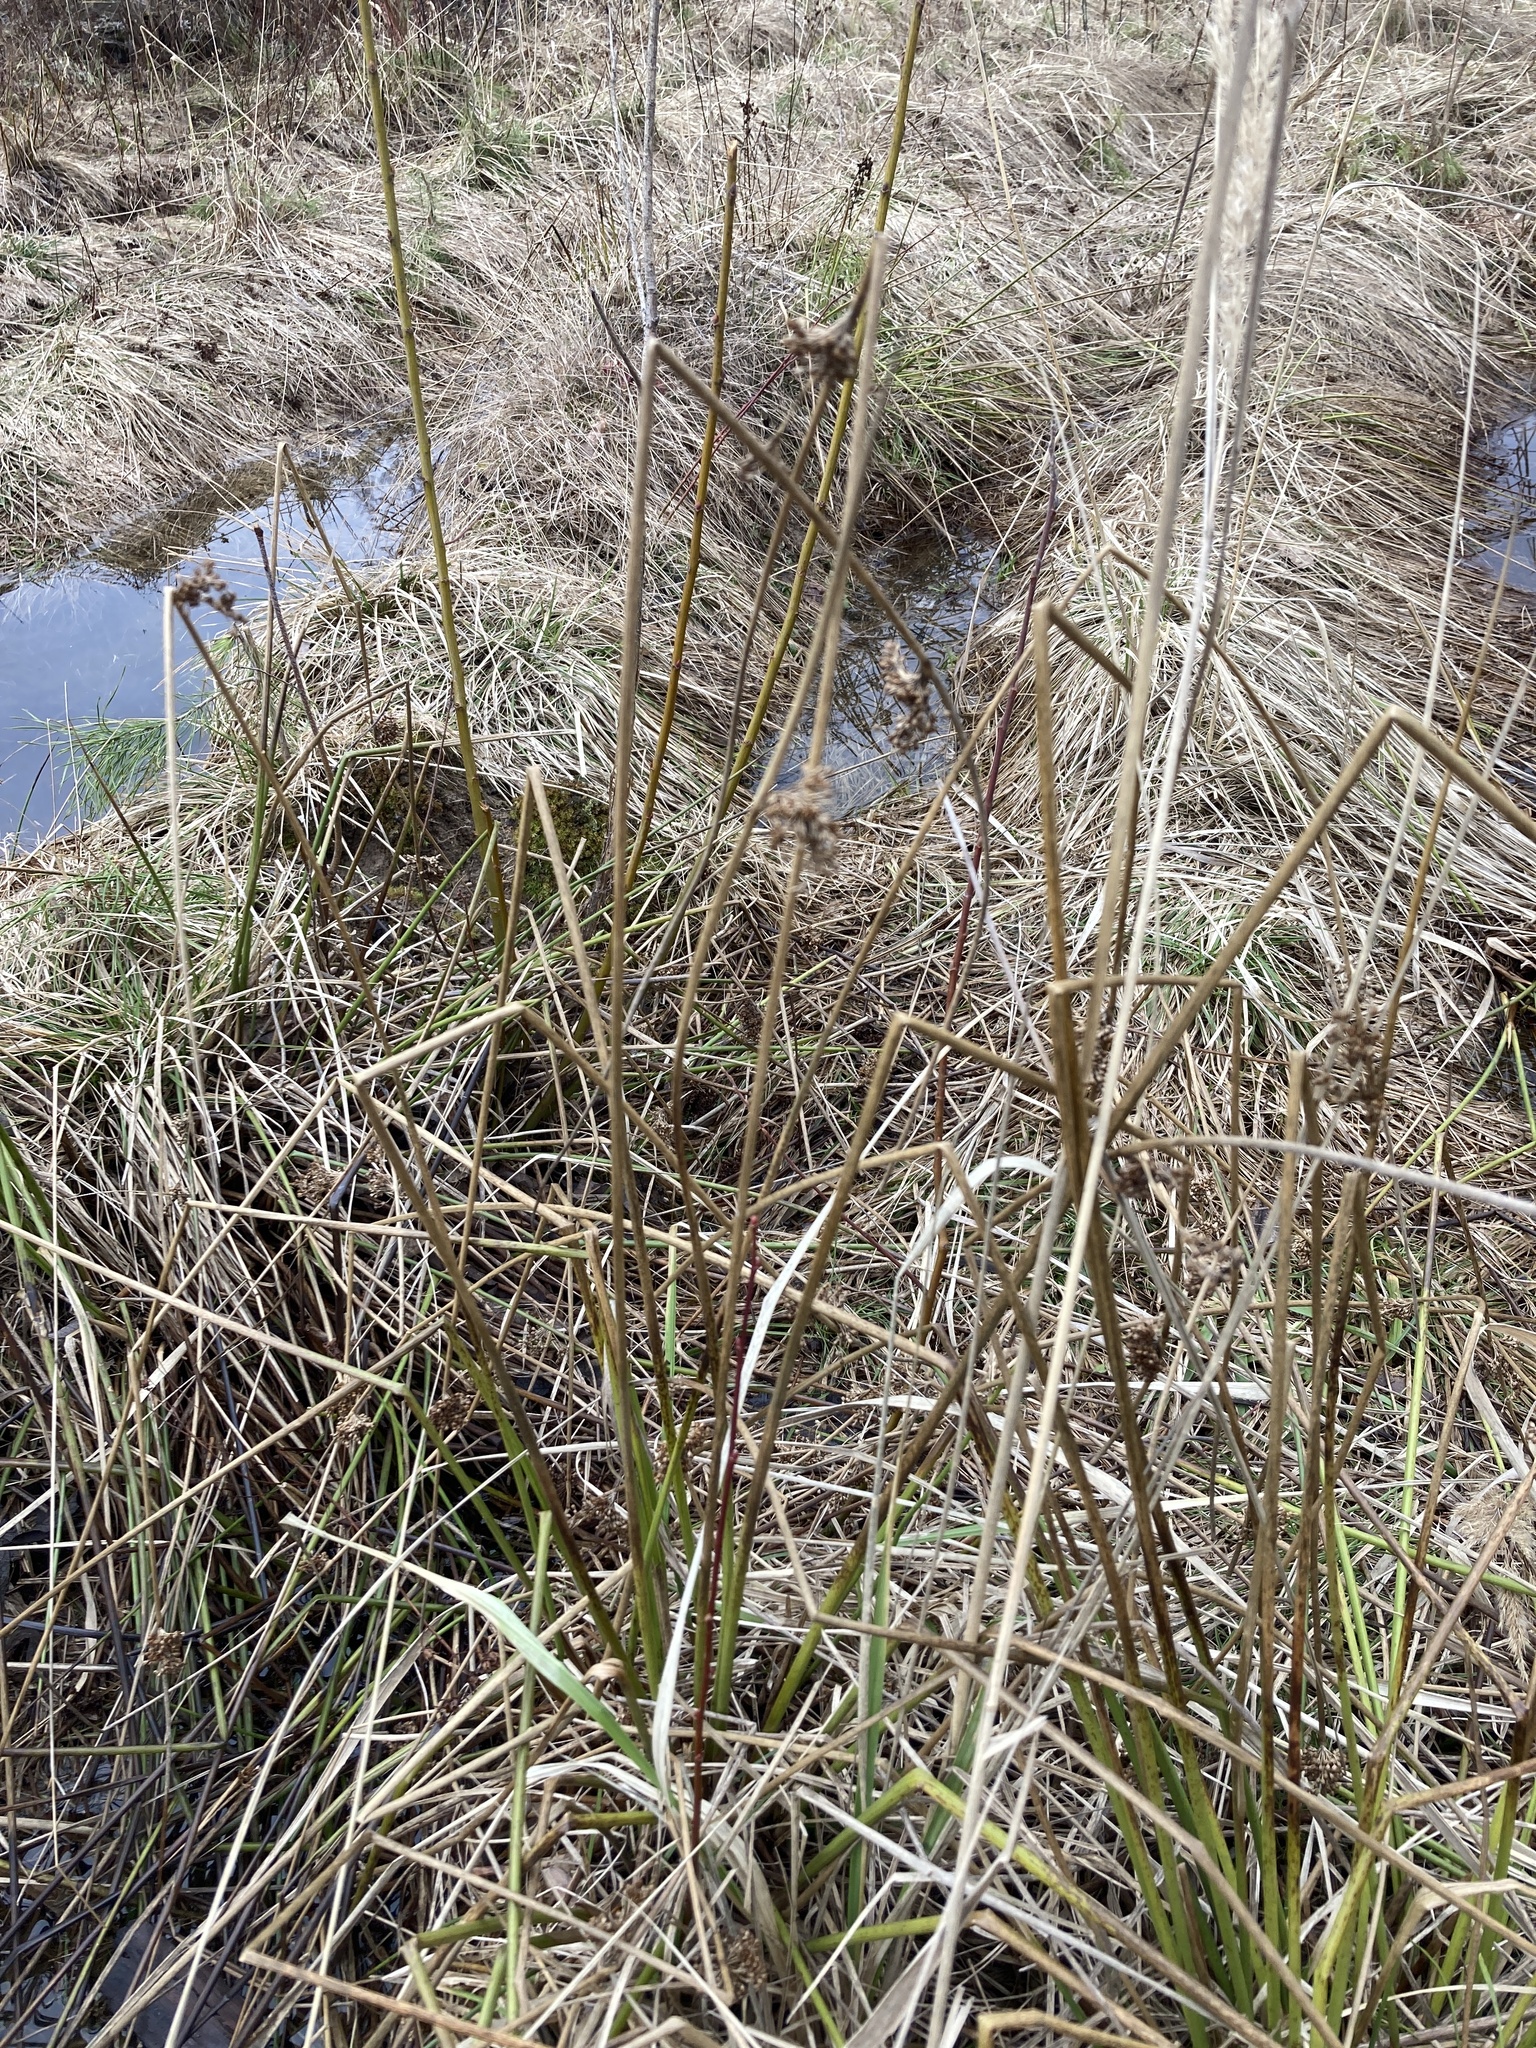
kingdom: Plantae
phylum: Tracheophyta
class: Liliopsida
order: Poales
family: Juncaceae
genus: Juncus
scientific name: Juncus effusus
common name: Soft rush
